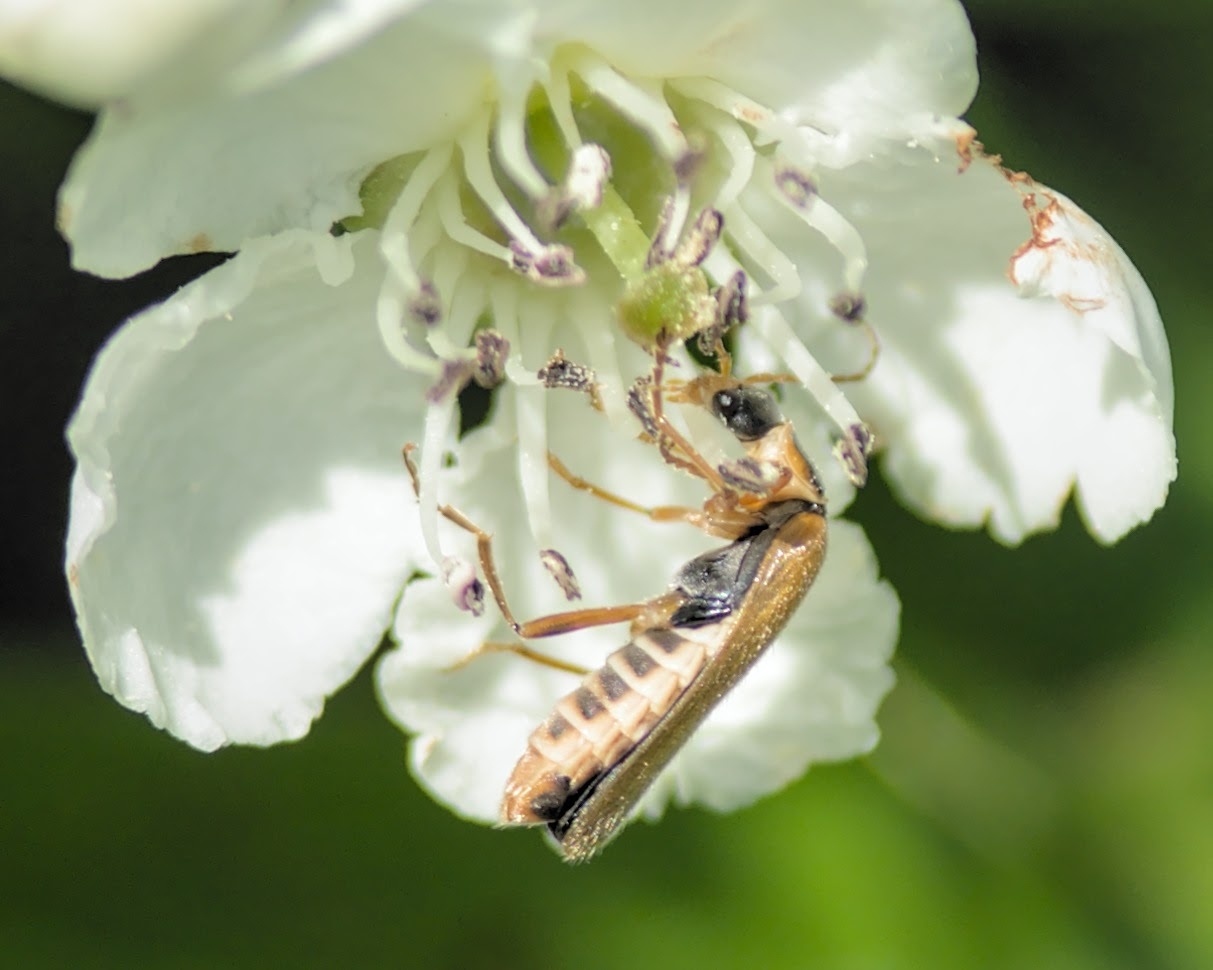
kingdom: Animalia
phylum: Arthropoda
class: Insecta
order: Coleoptera
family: Cantharidae
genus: Cantharis
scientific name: Cantharis decipiens
